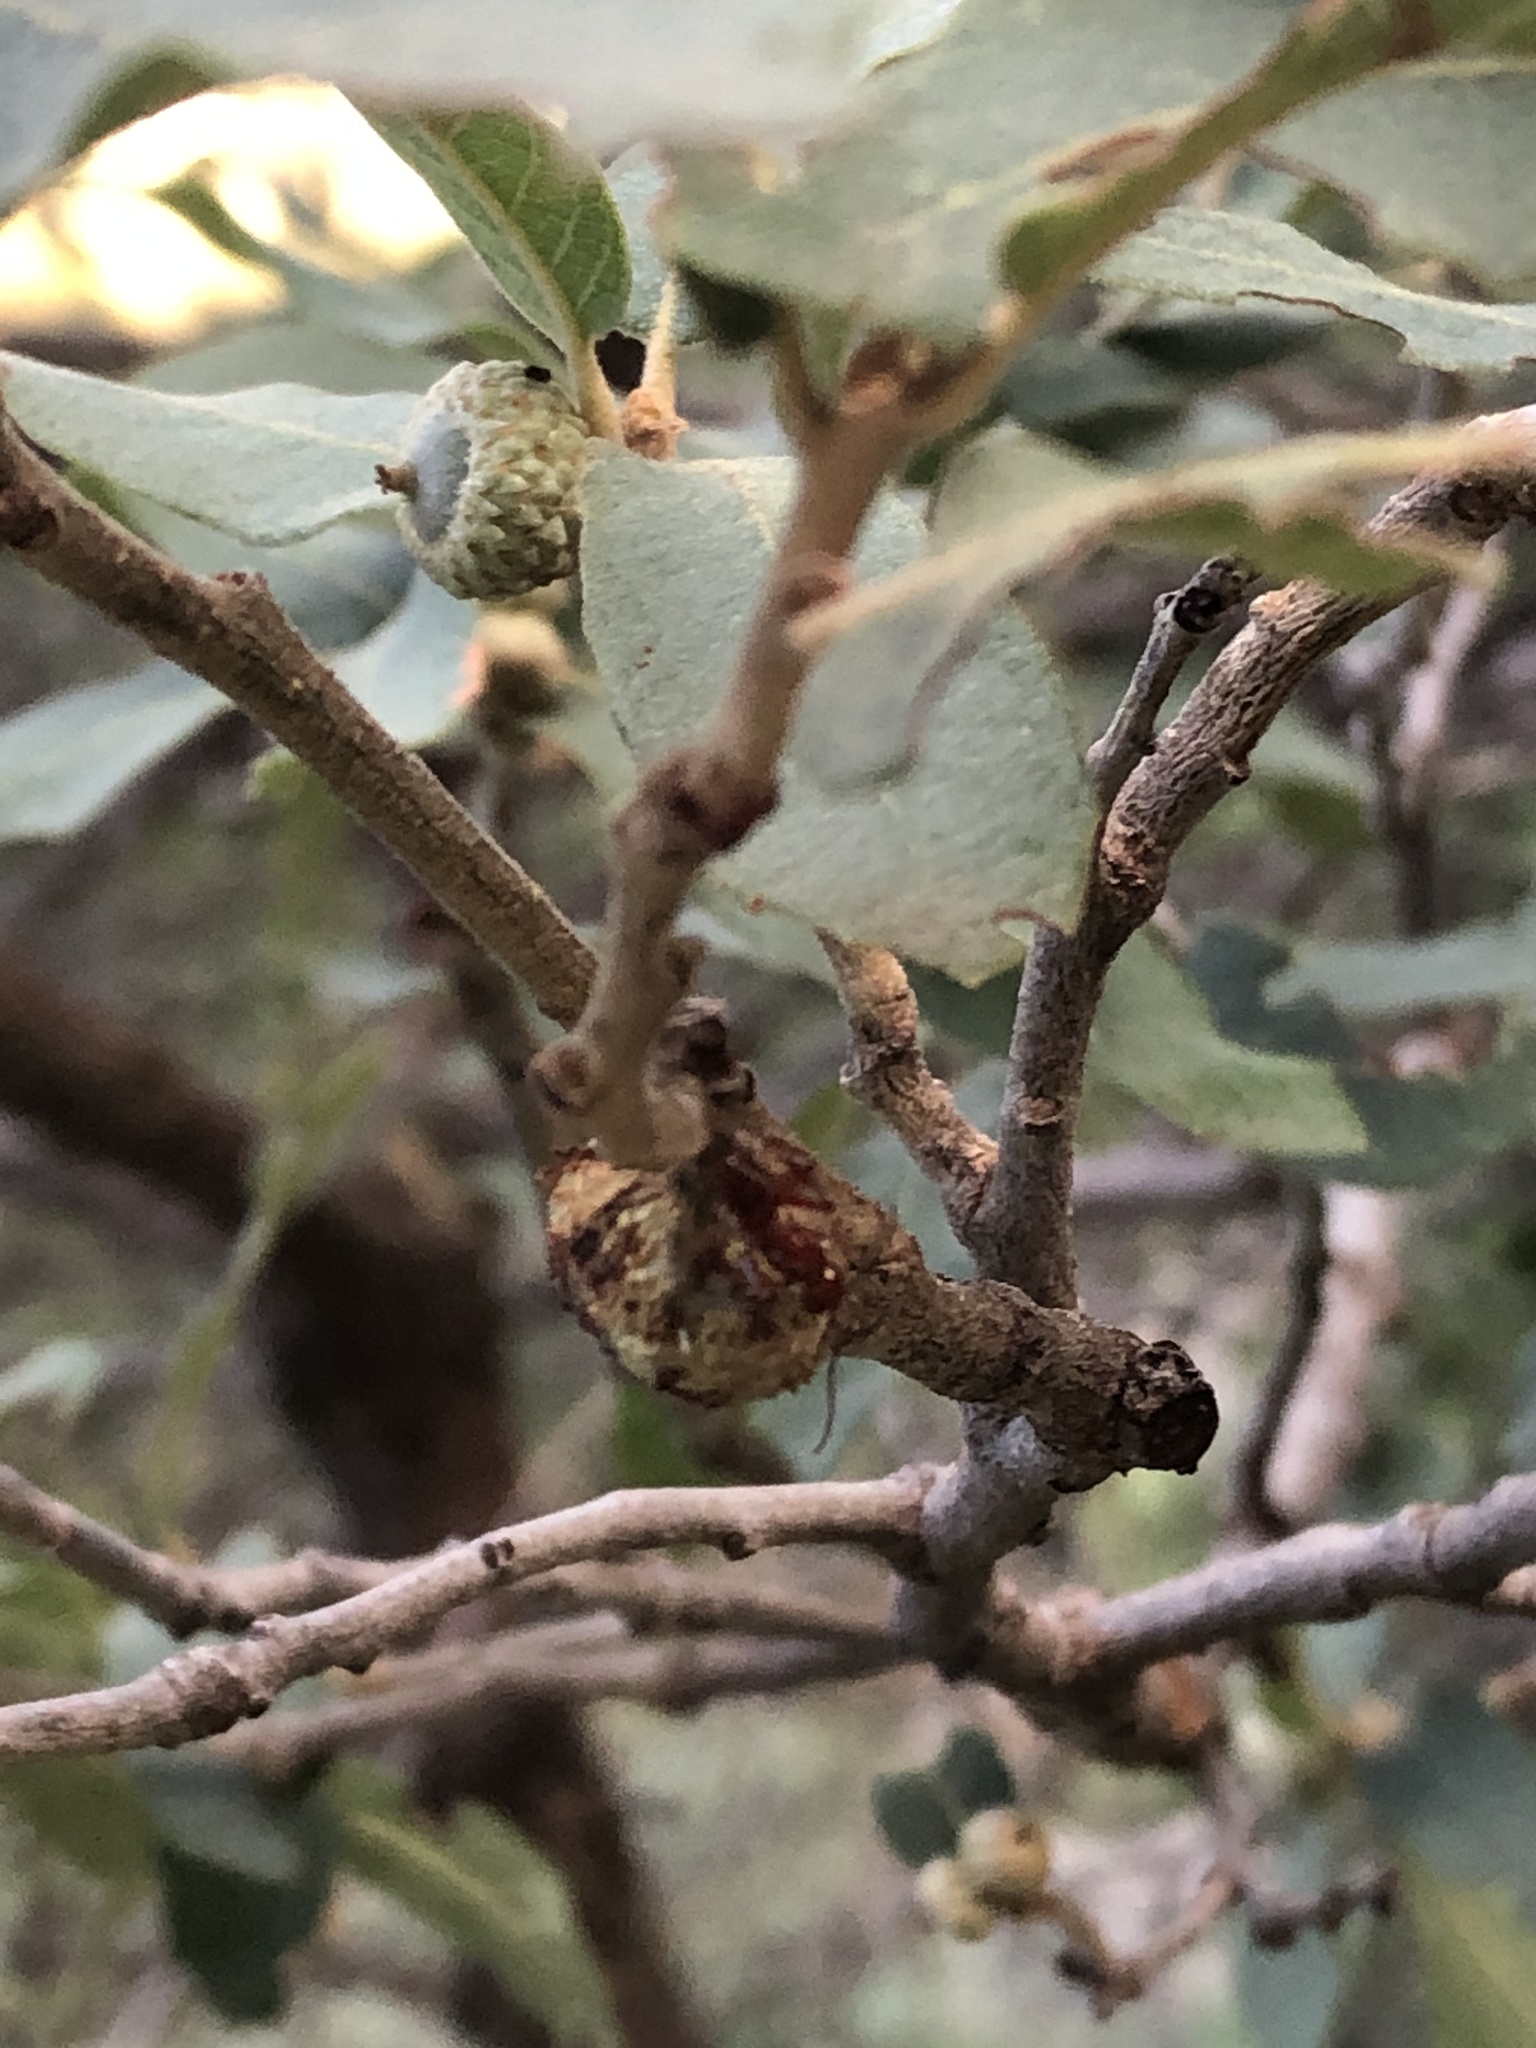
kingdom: Animalia
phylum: Arthropoda
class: Insecta
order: Hymenoptera
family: Formicidae
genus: Camponotus
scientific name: Camponotus schaefferi
